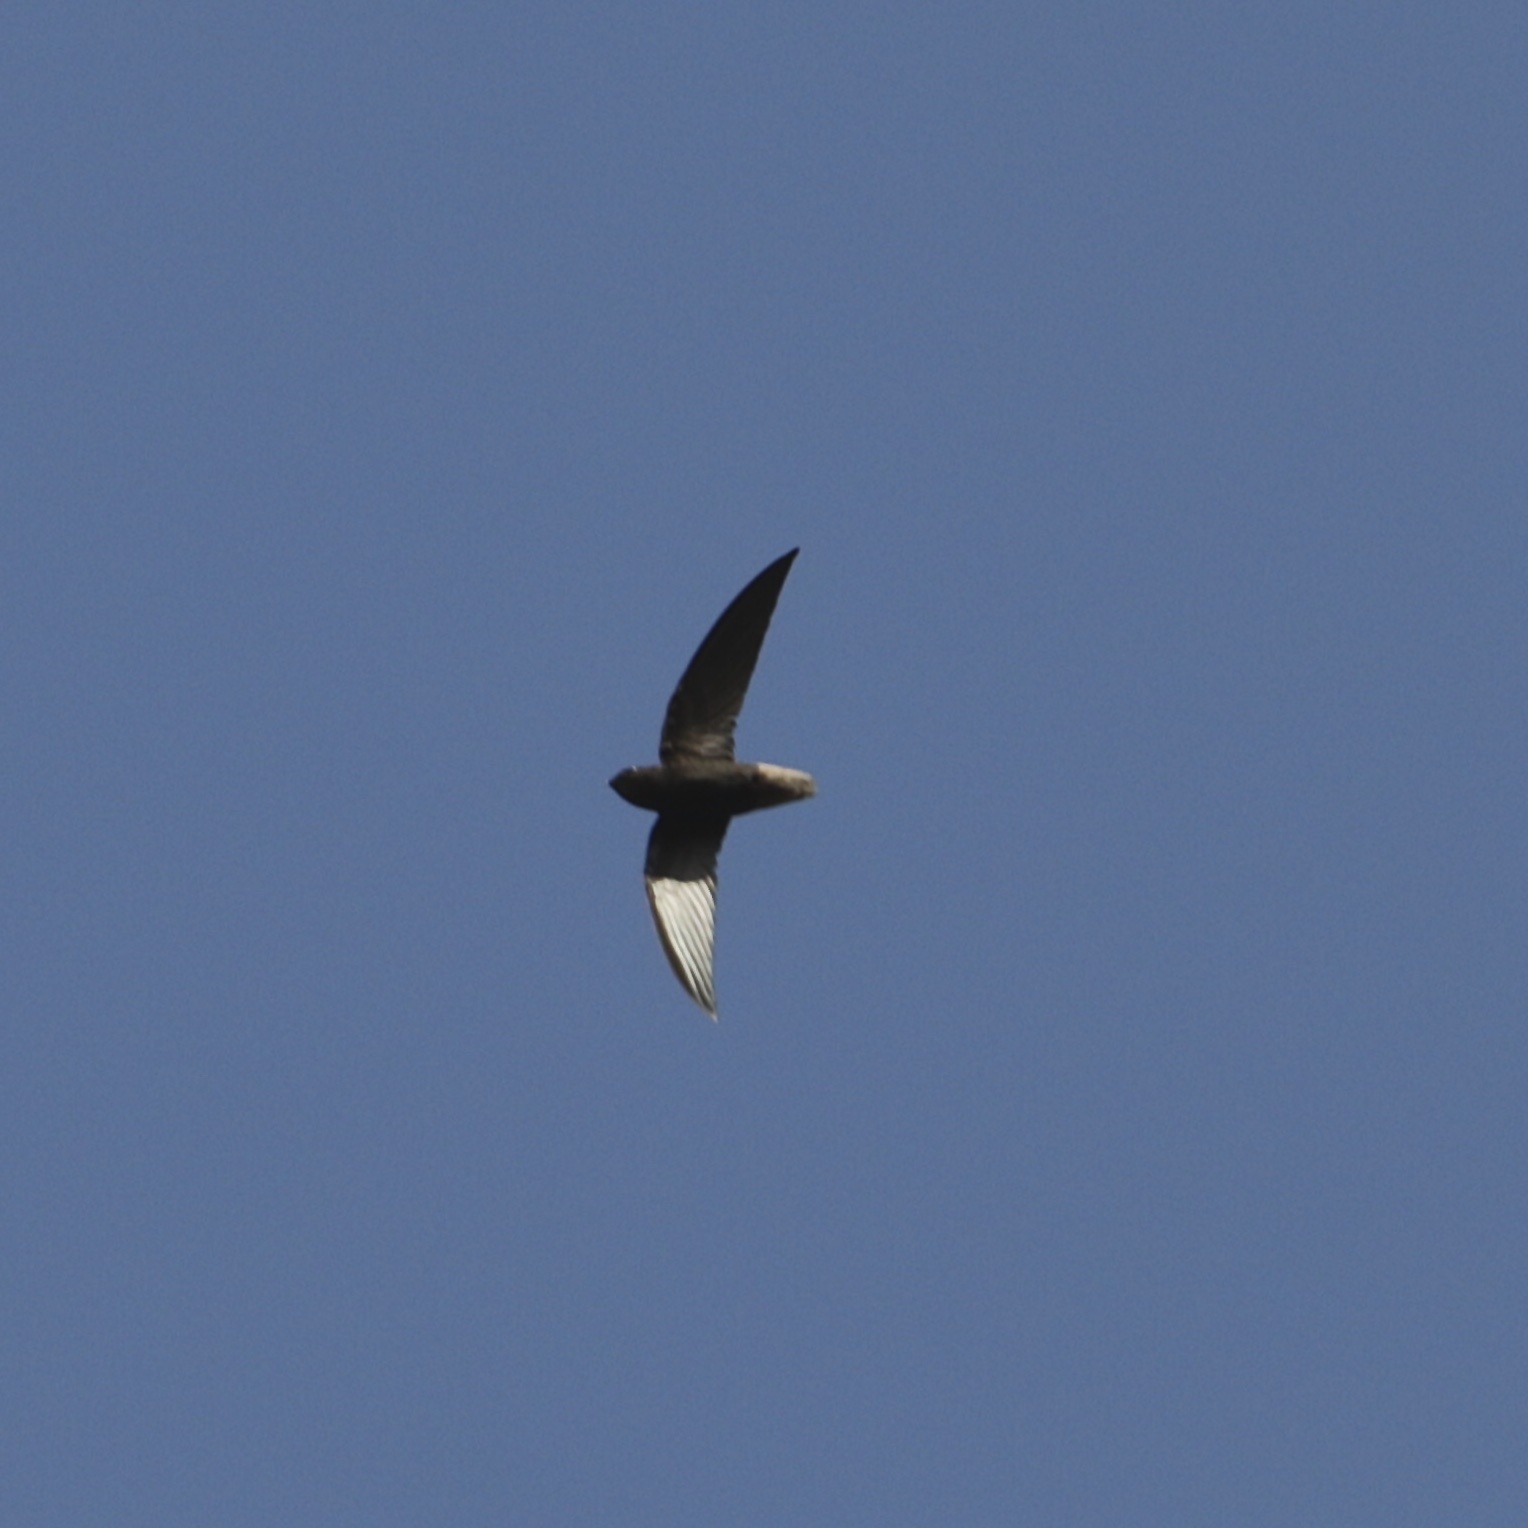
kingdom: Animalia
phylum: Chordata
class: Aves
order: Apodiformes
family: Apodidae
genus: Chaetura
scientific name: Chaetura brachyura
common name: Short-tailed swift
